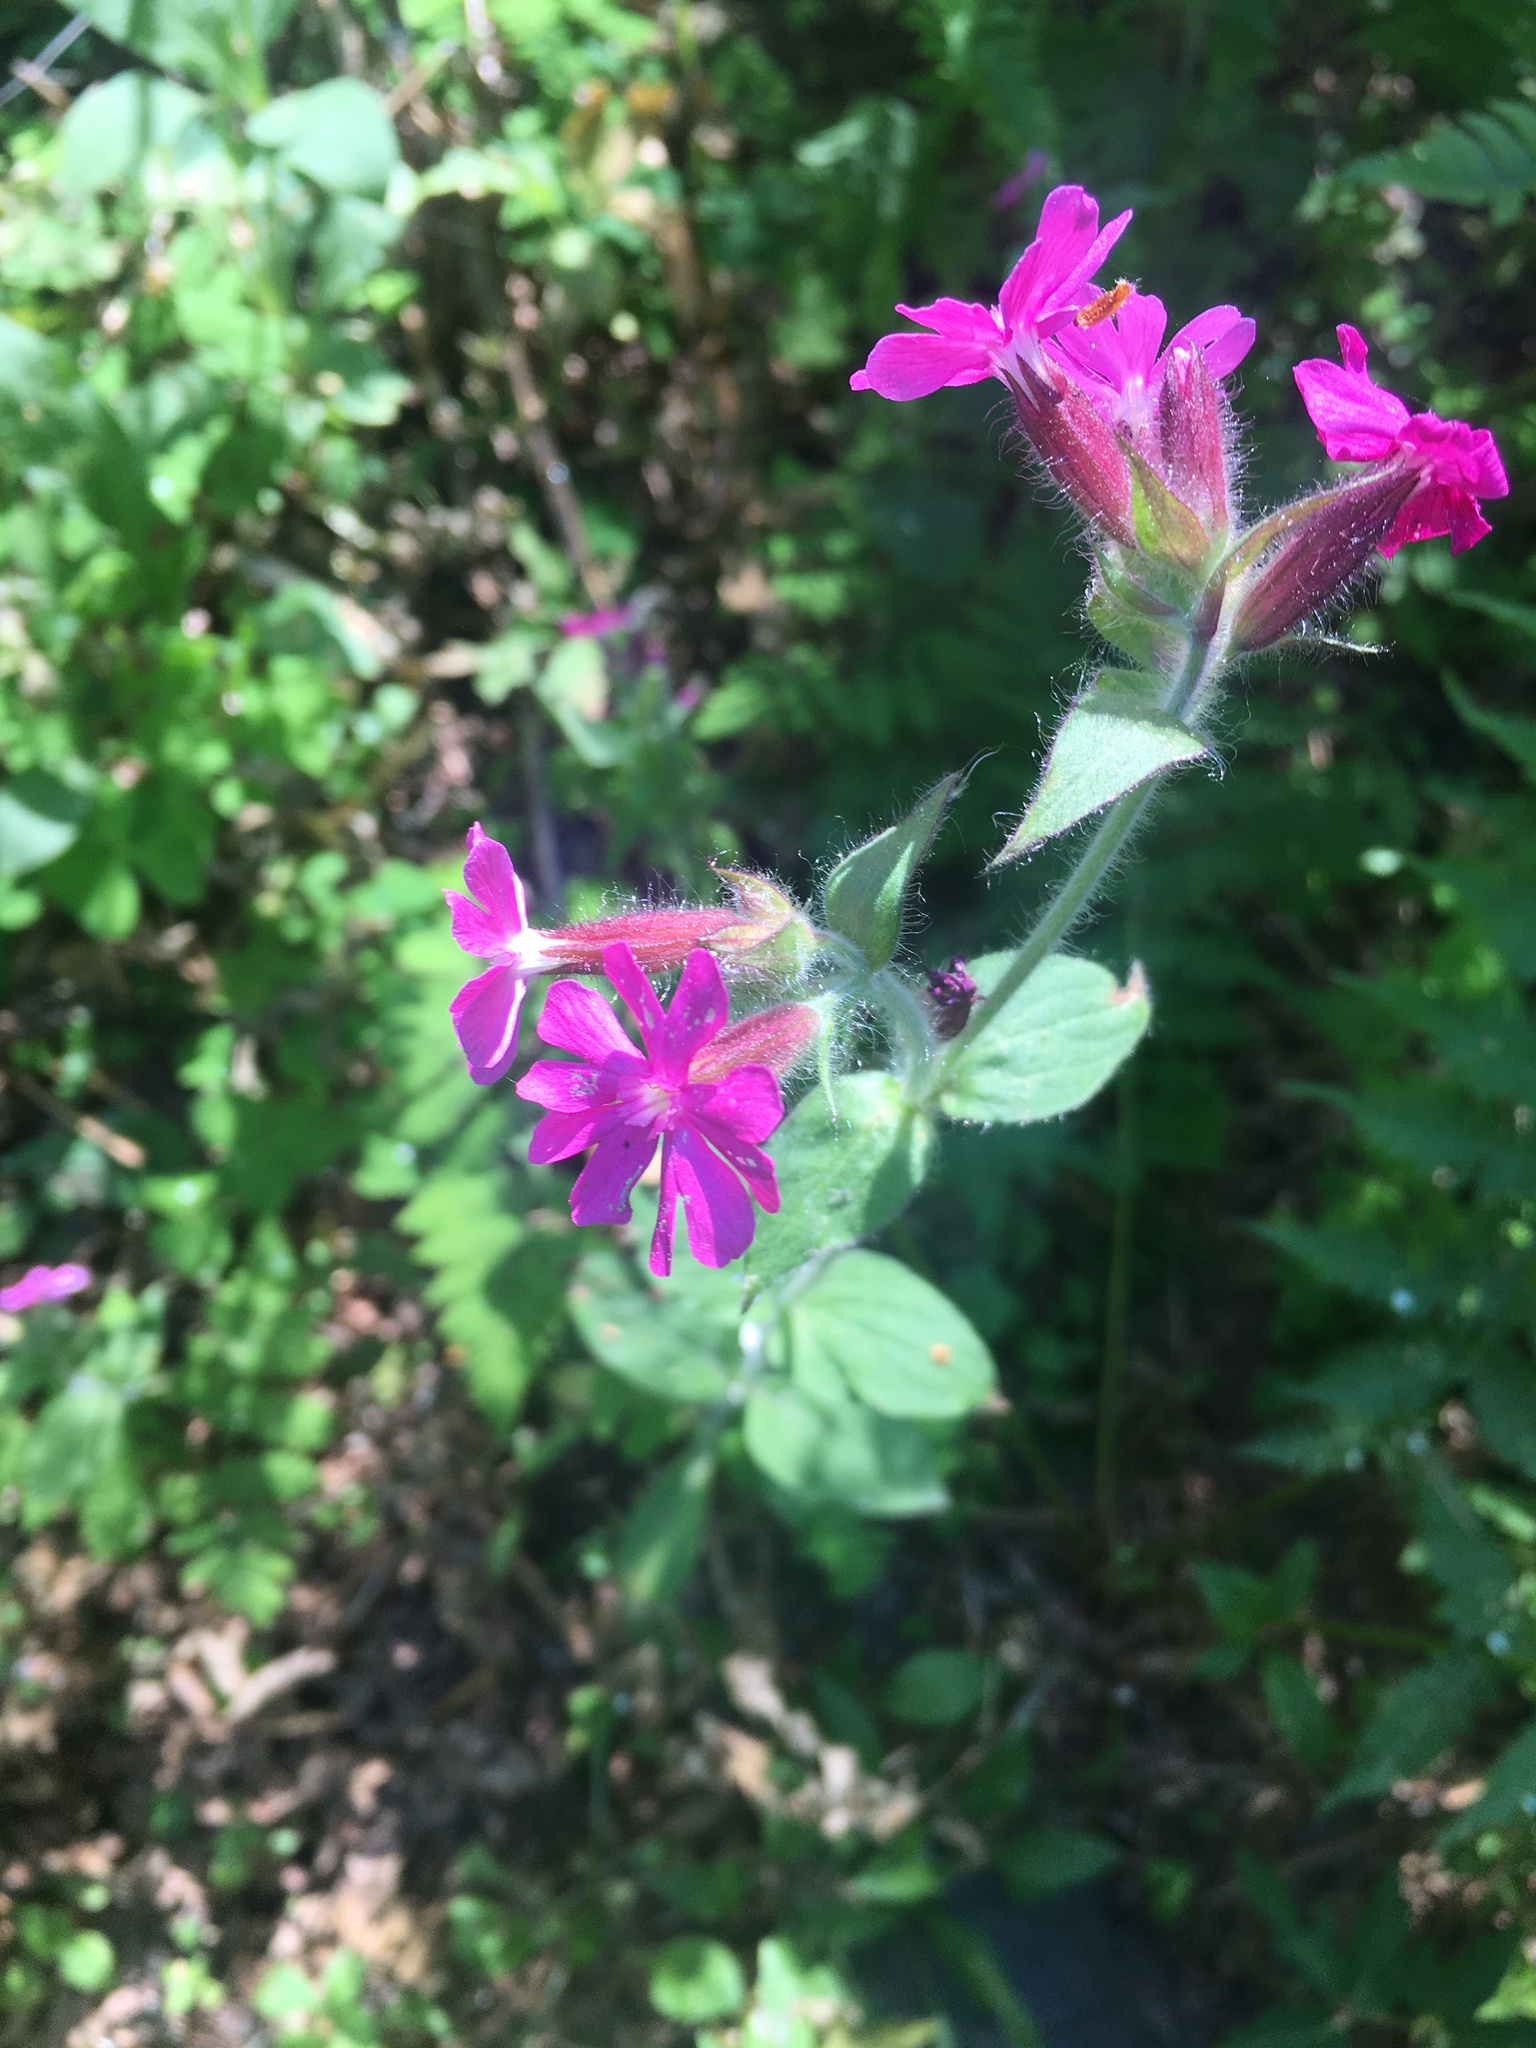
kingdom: Plantae
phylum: Tracheophyta
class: Magnoliopsida
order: Caryophyllales
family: Caryophyllaceae
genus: Silene
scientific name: Silene dioica
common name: Red campion
